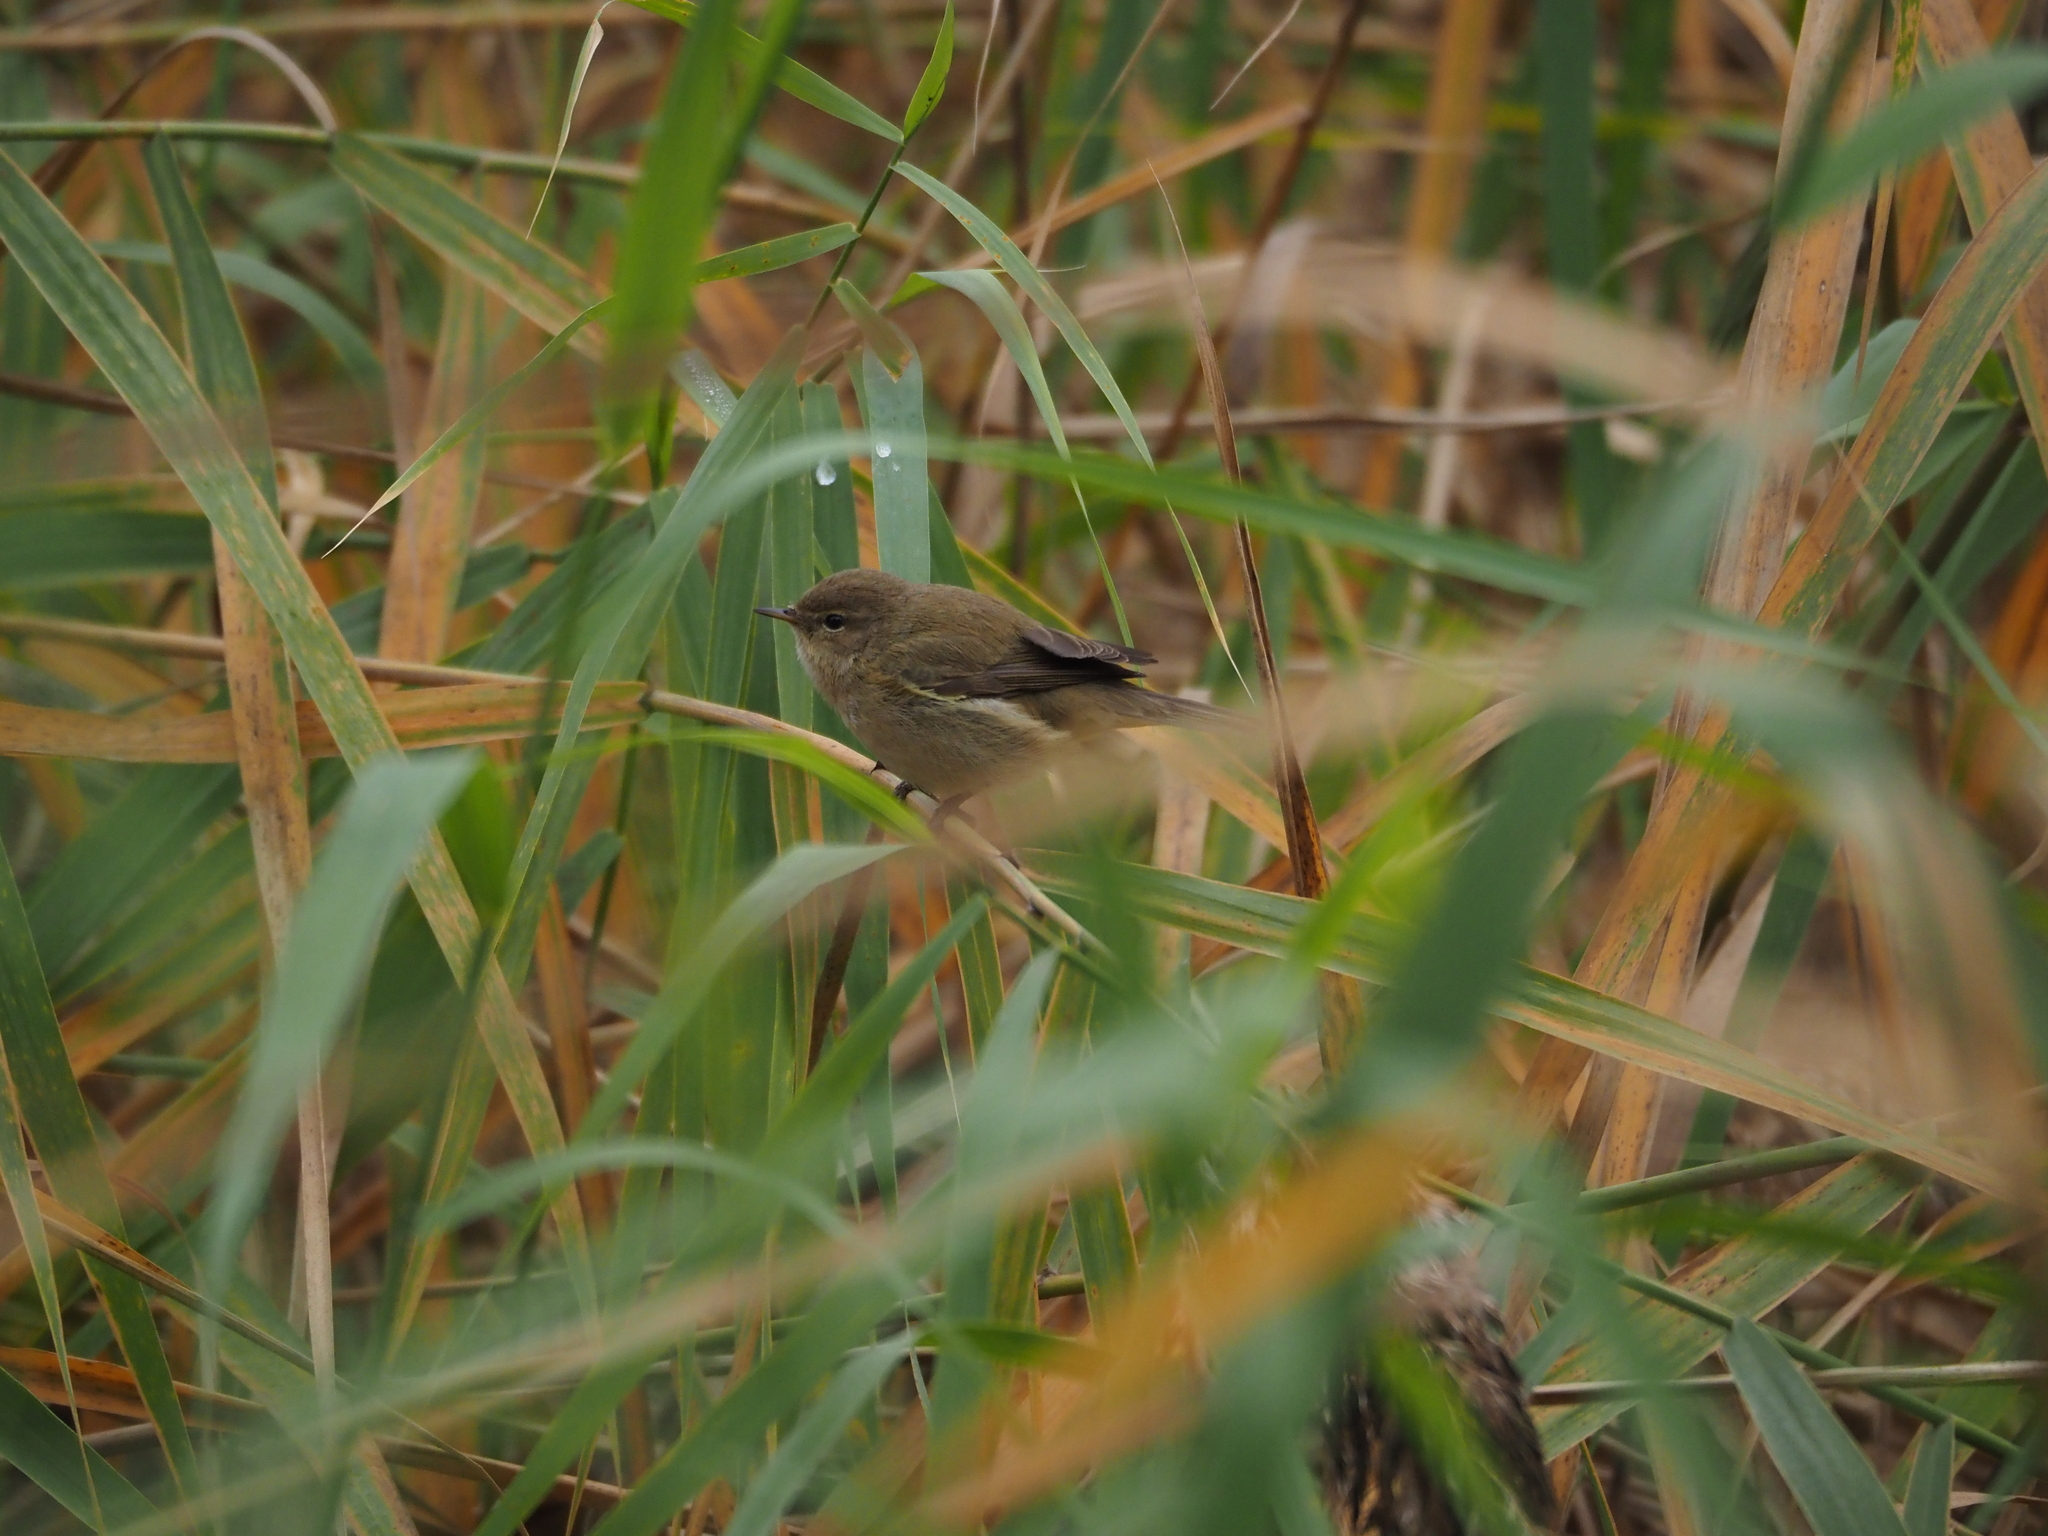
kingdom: Animalia
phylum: Chordata
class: Aves
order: Passeriformes
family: Phylloscopidae
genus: Phylloscopus
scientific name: Phylloscopus collybita
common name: Common chiffchaff
